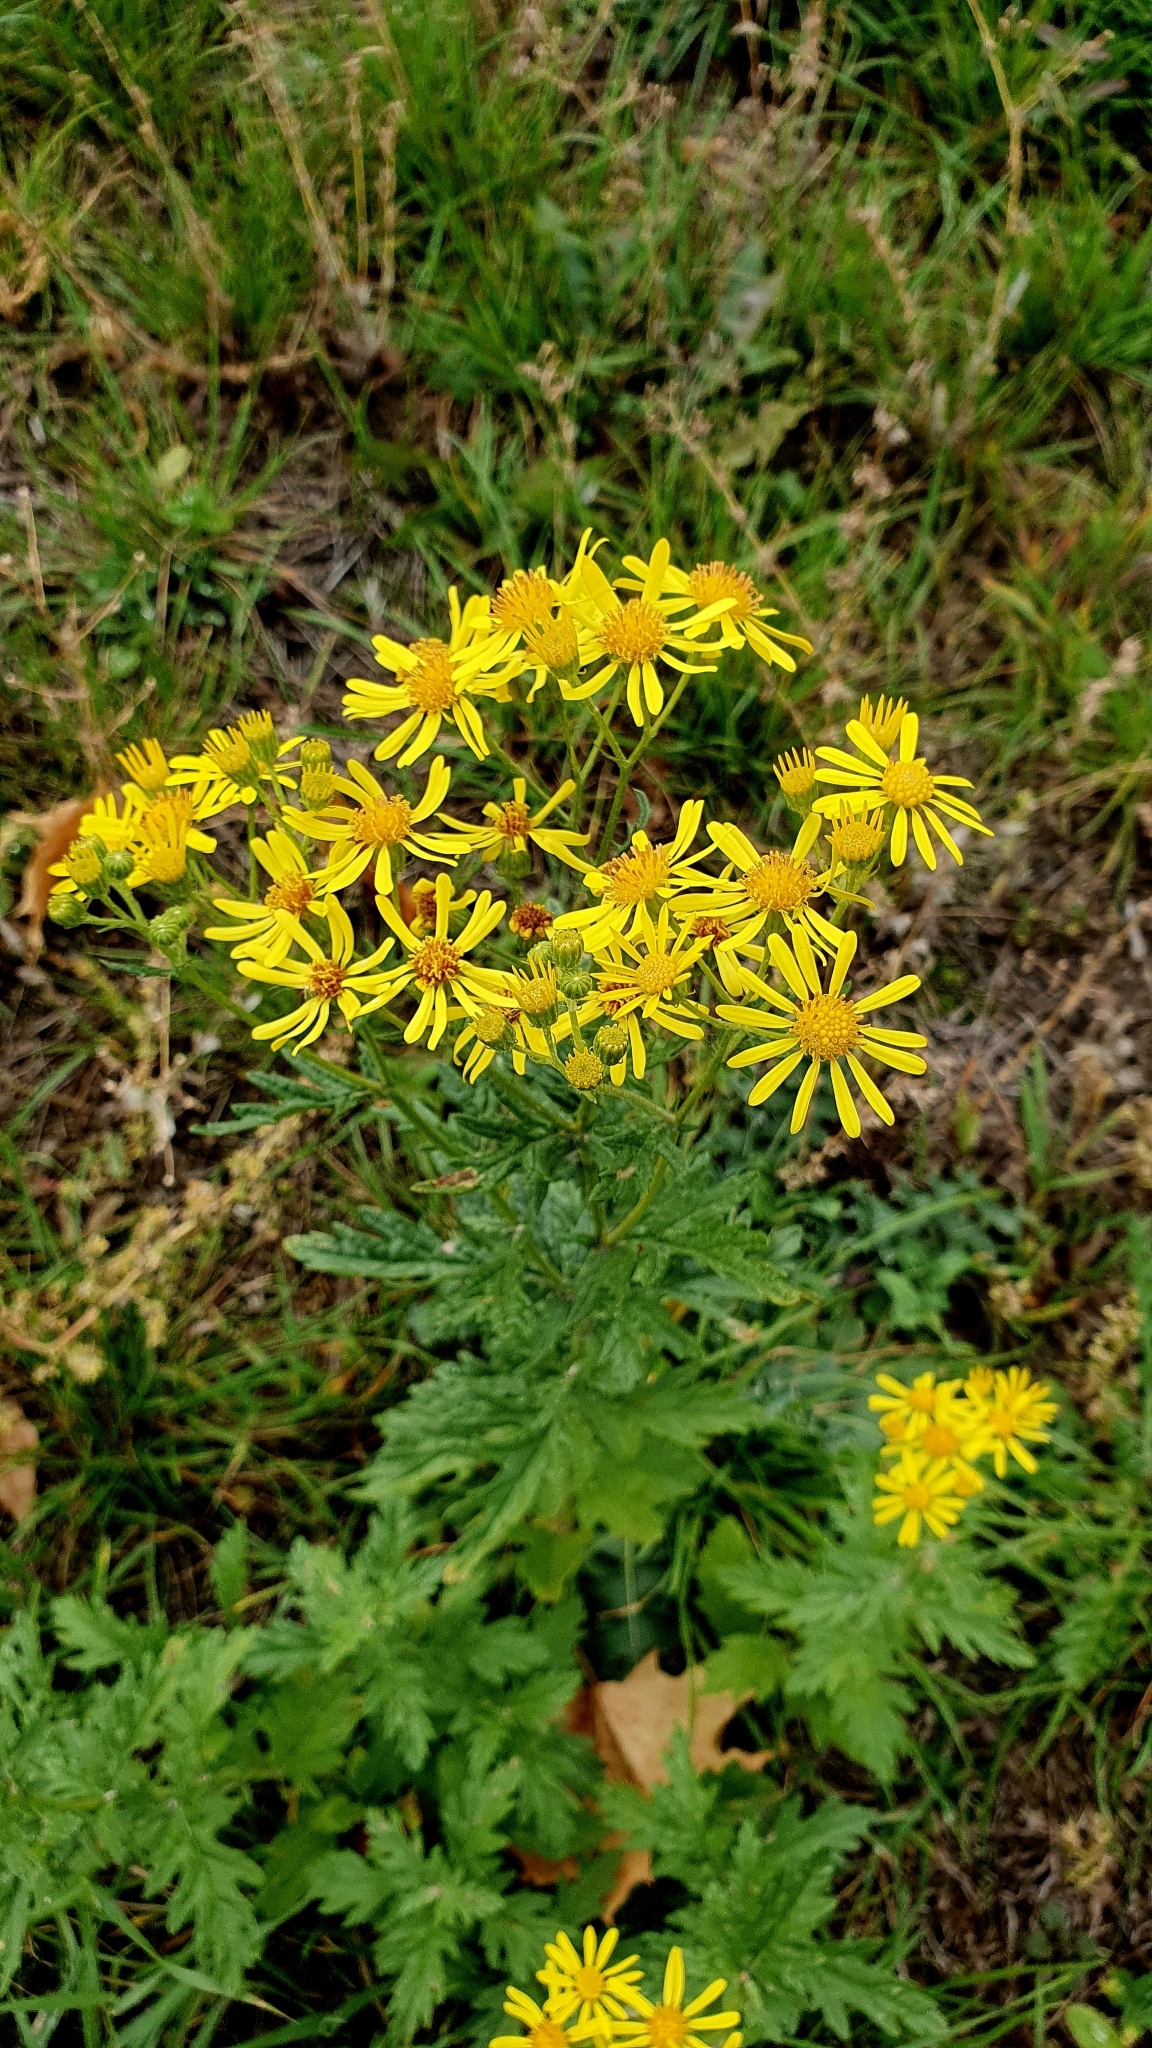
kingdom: Plantae
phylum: Tracheophyta
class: Magnoliopsida
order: Asterales
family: Asteraceae
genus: Jacobaea
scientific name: Jacobaea erucifolia
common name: Hoary ragwort
